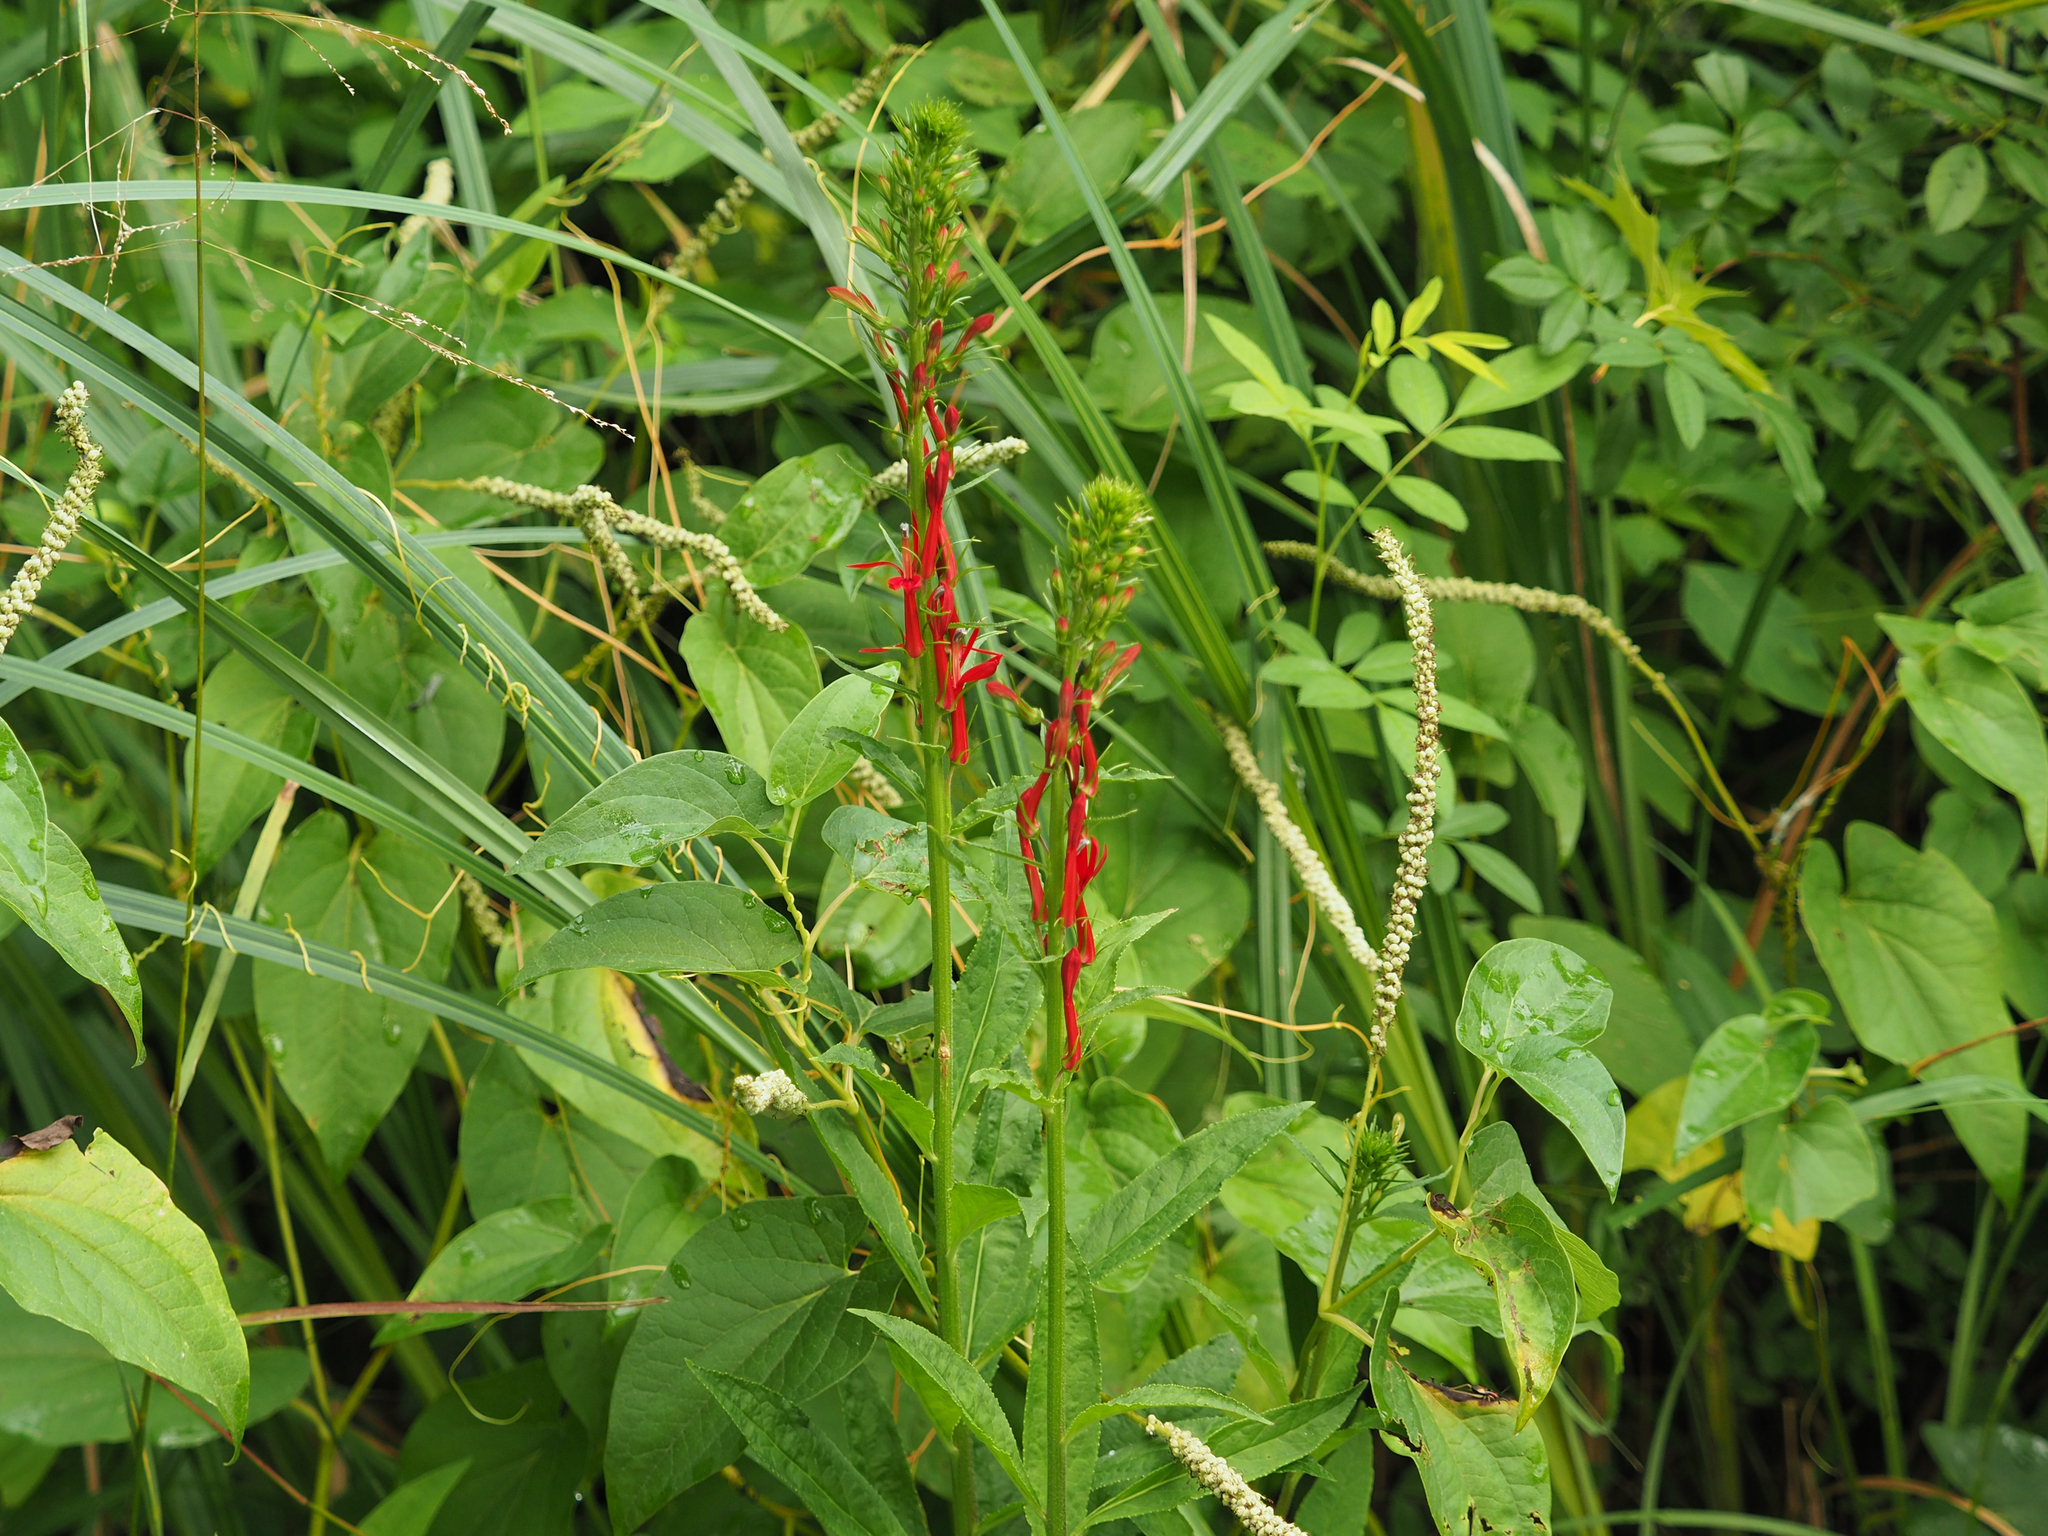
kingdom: Plantae
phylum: Tracheophyta
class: Magnoliopsida
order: Asterales
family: Campanulaceae
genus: Lobelia
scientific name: Lobelia cardinalis
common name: Cardinal flower
